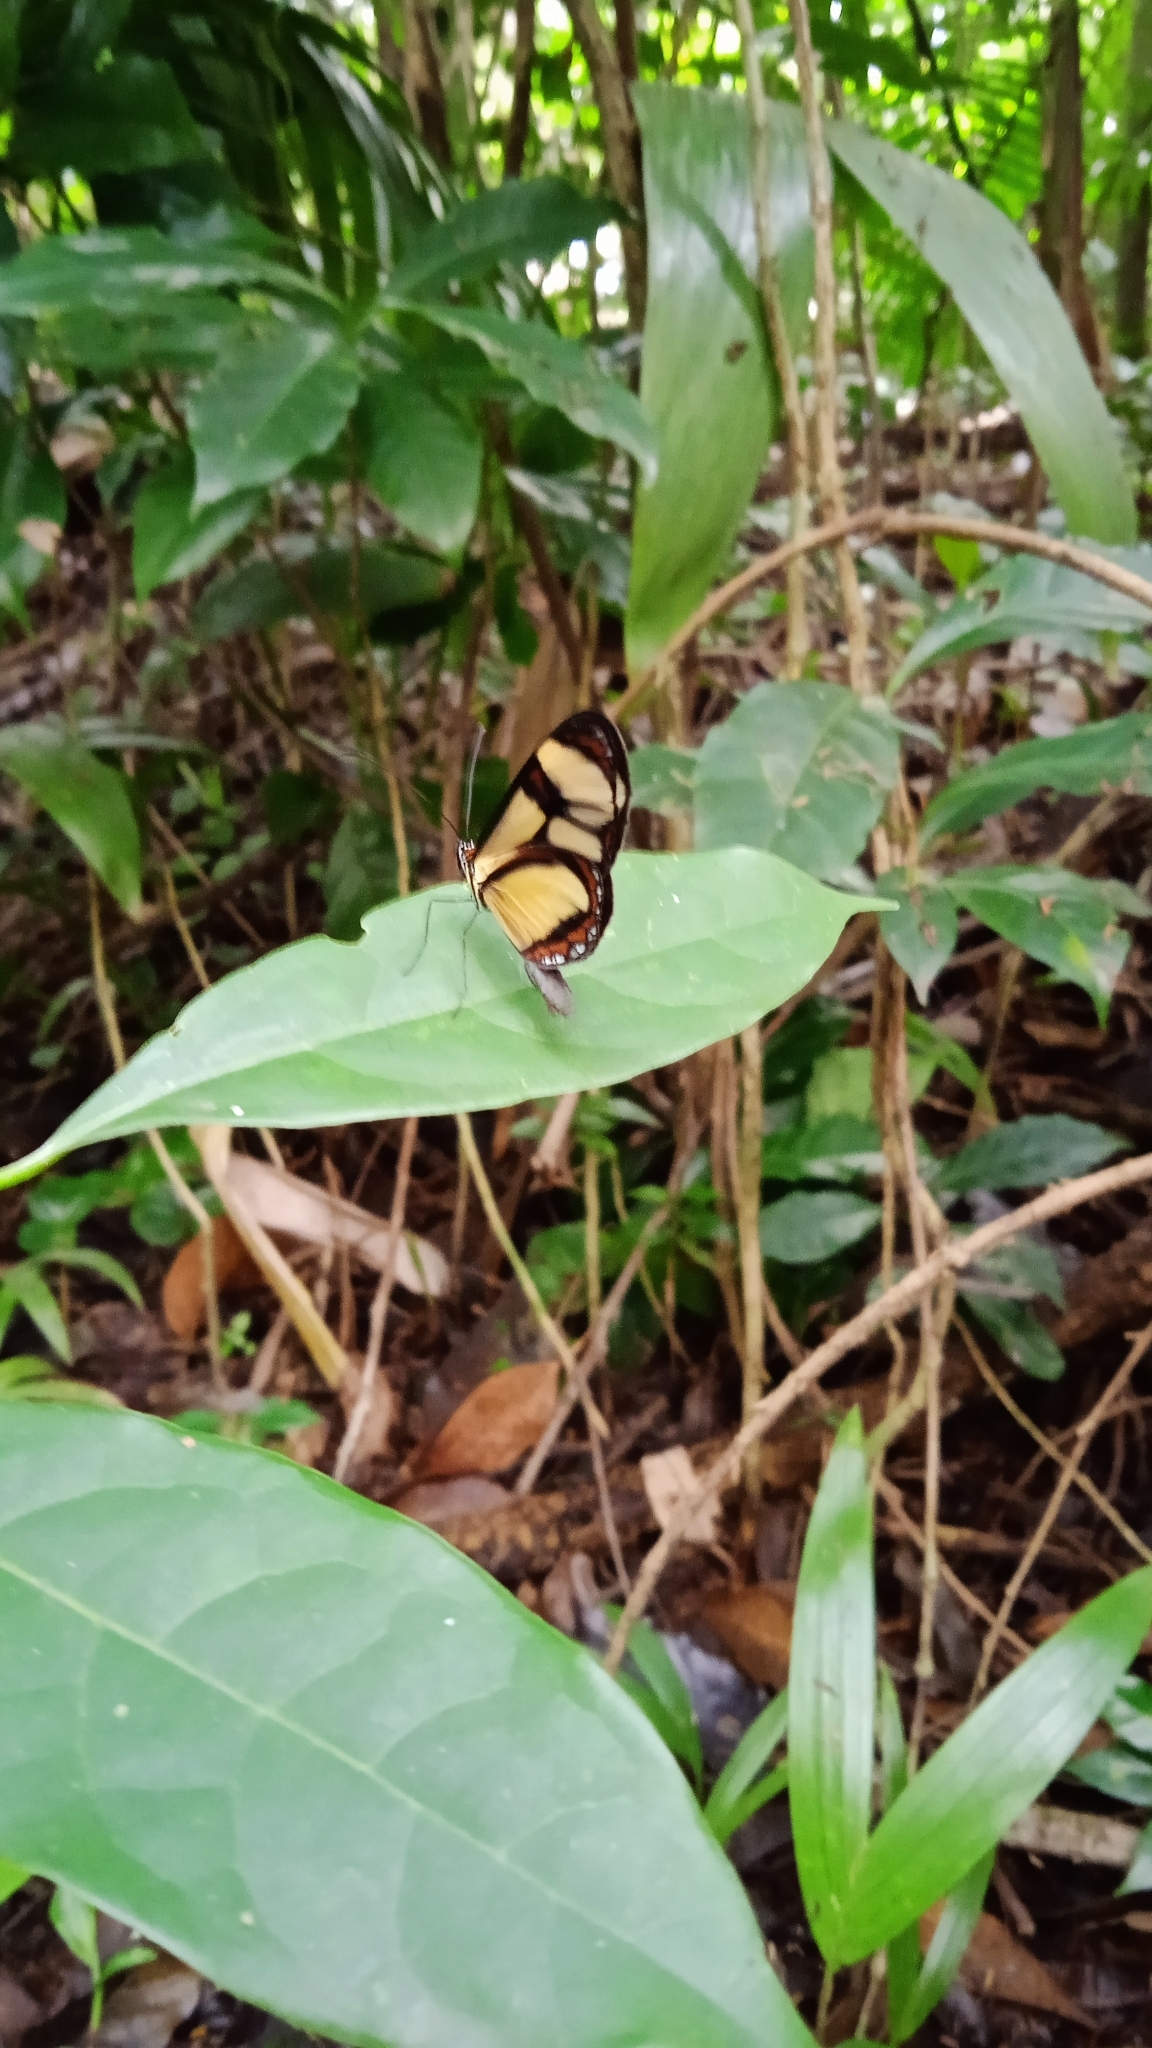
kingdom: Animalia
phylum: Arthropoda
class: Insecta
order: Lepidoptera
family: Nymphalidae
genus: Epityches
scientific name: Epityches eupompe
